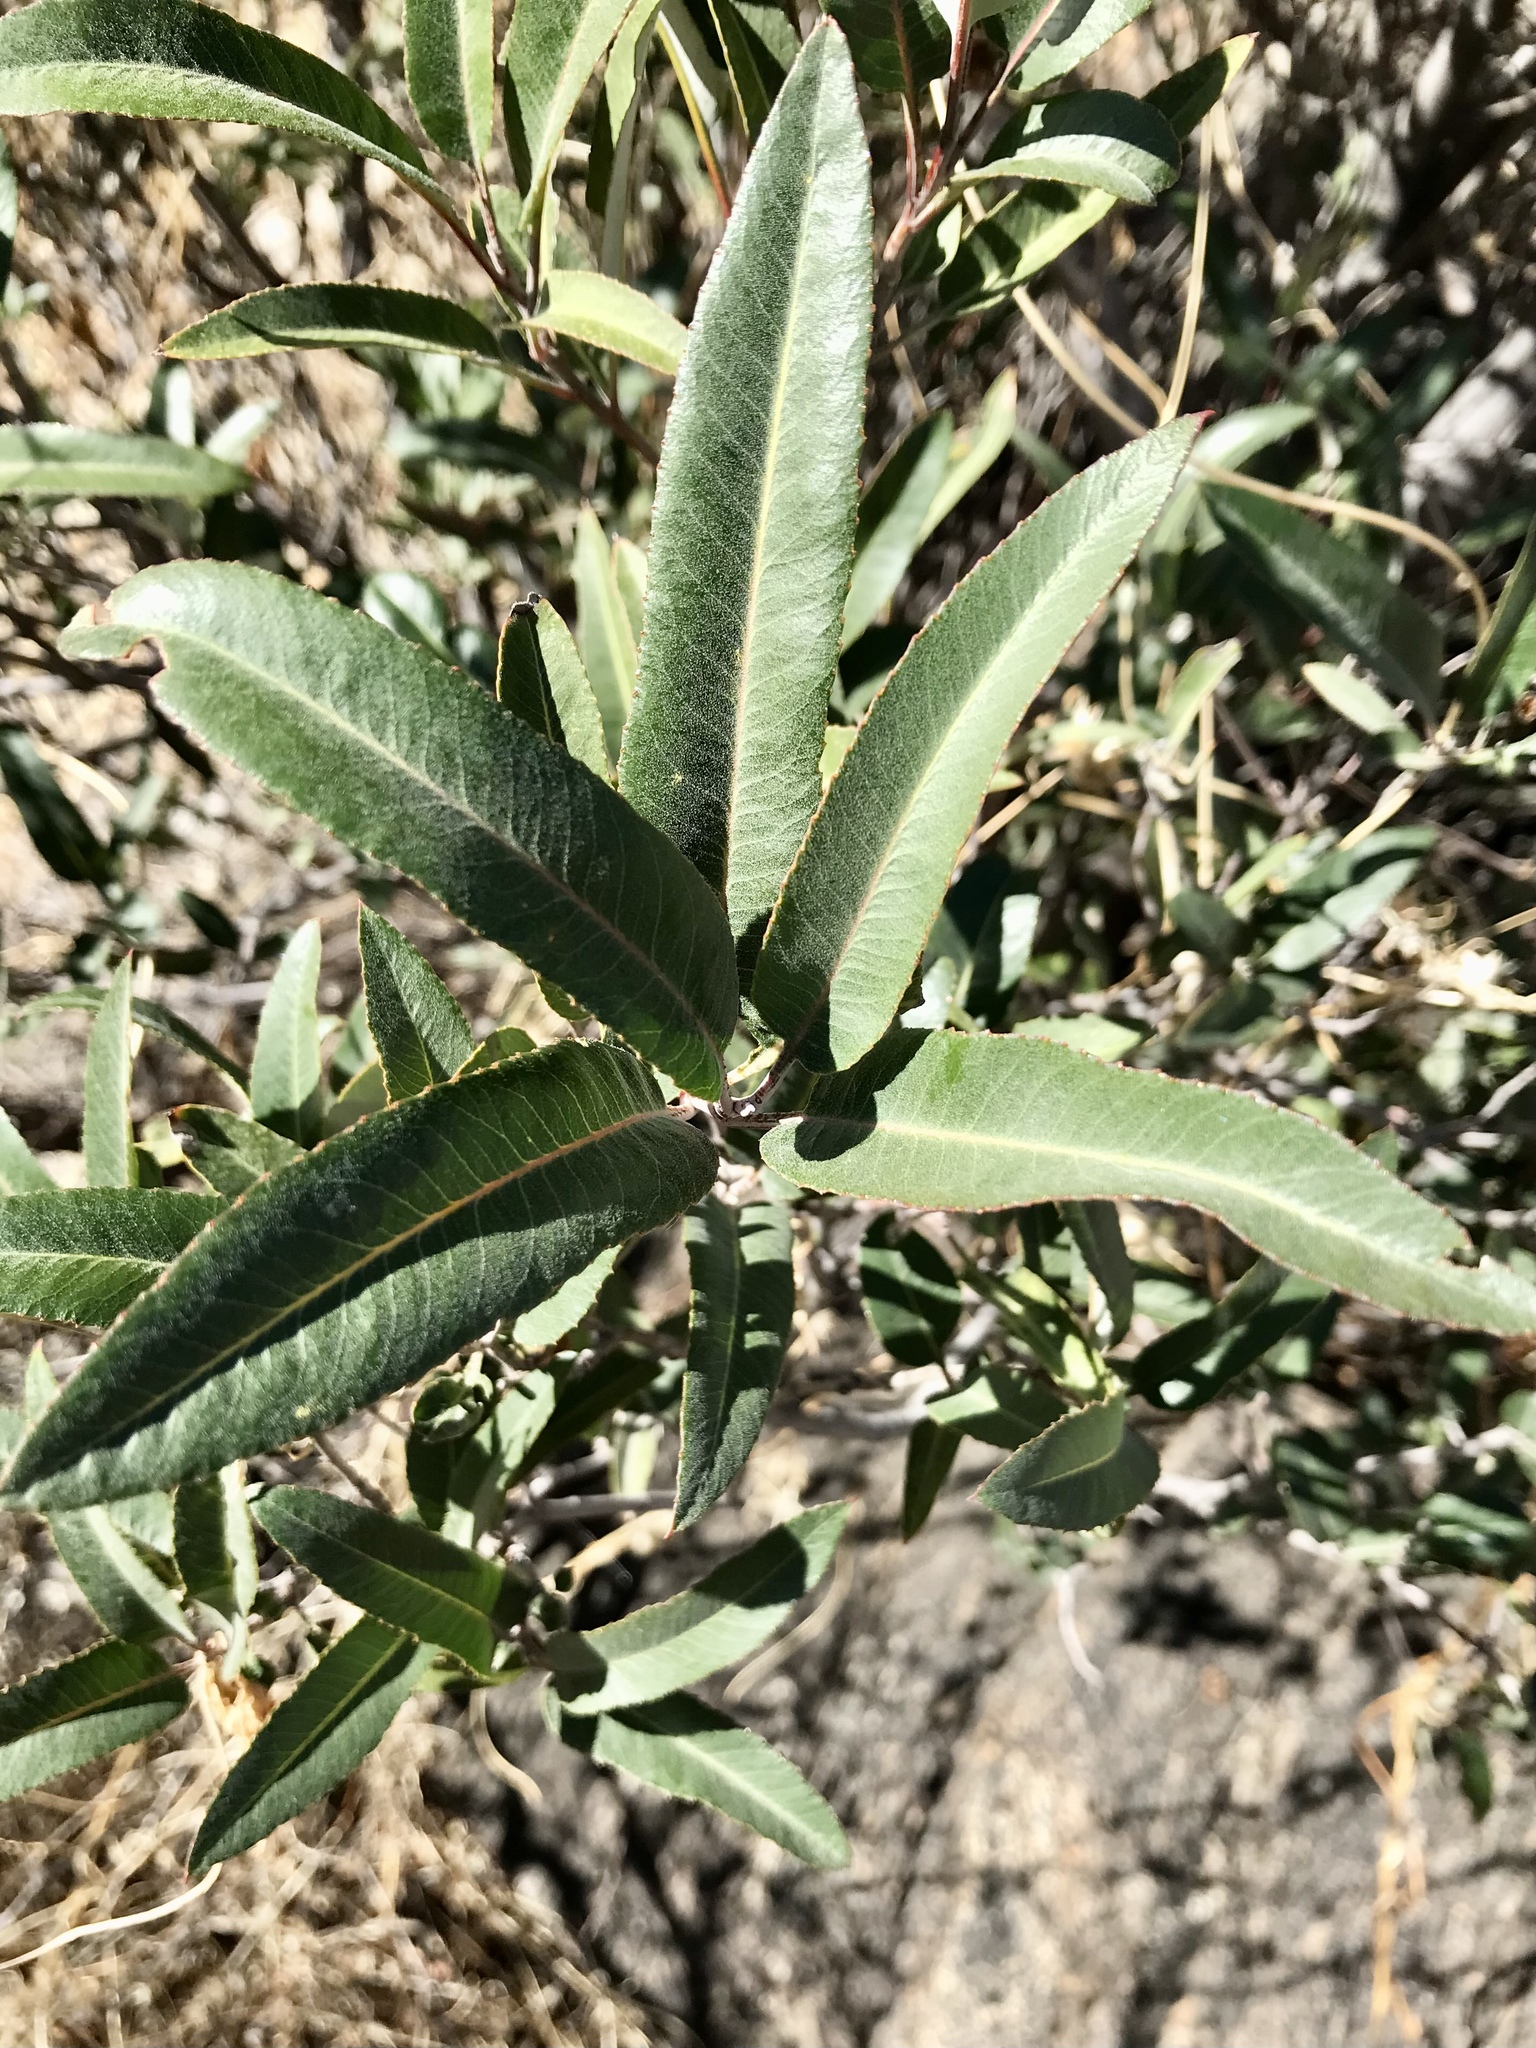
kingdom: Plantae
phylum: Tracheophyta
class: Magnoliopsida
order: Rosales
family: Rosaceae
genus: Vauquelinia
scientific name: Vauquelinia californica
